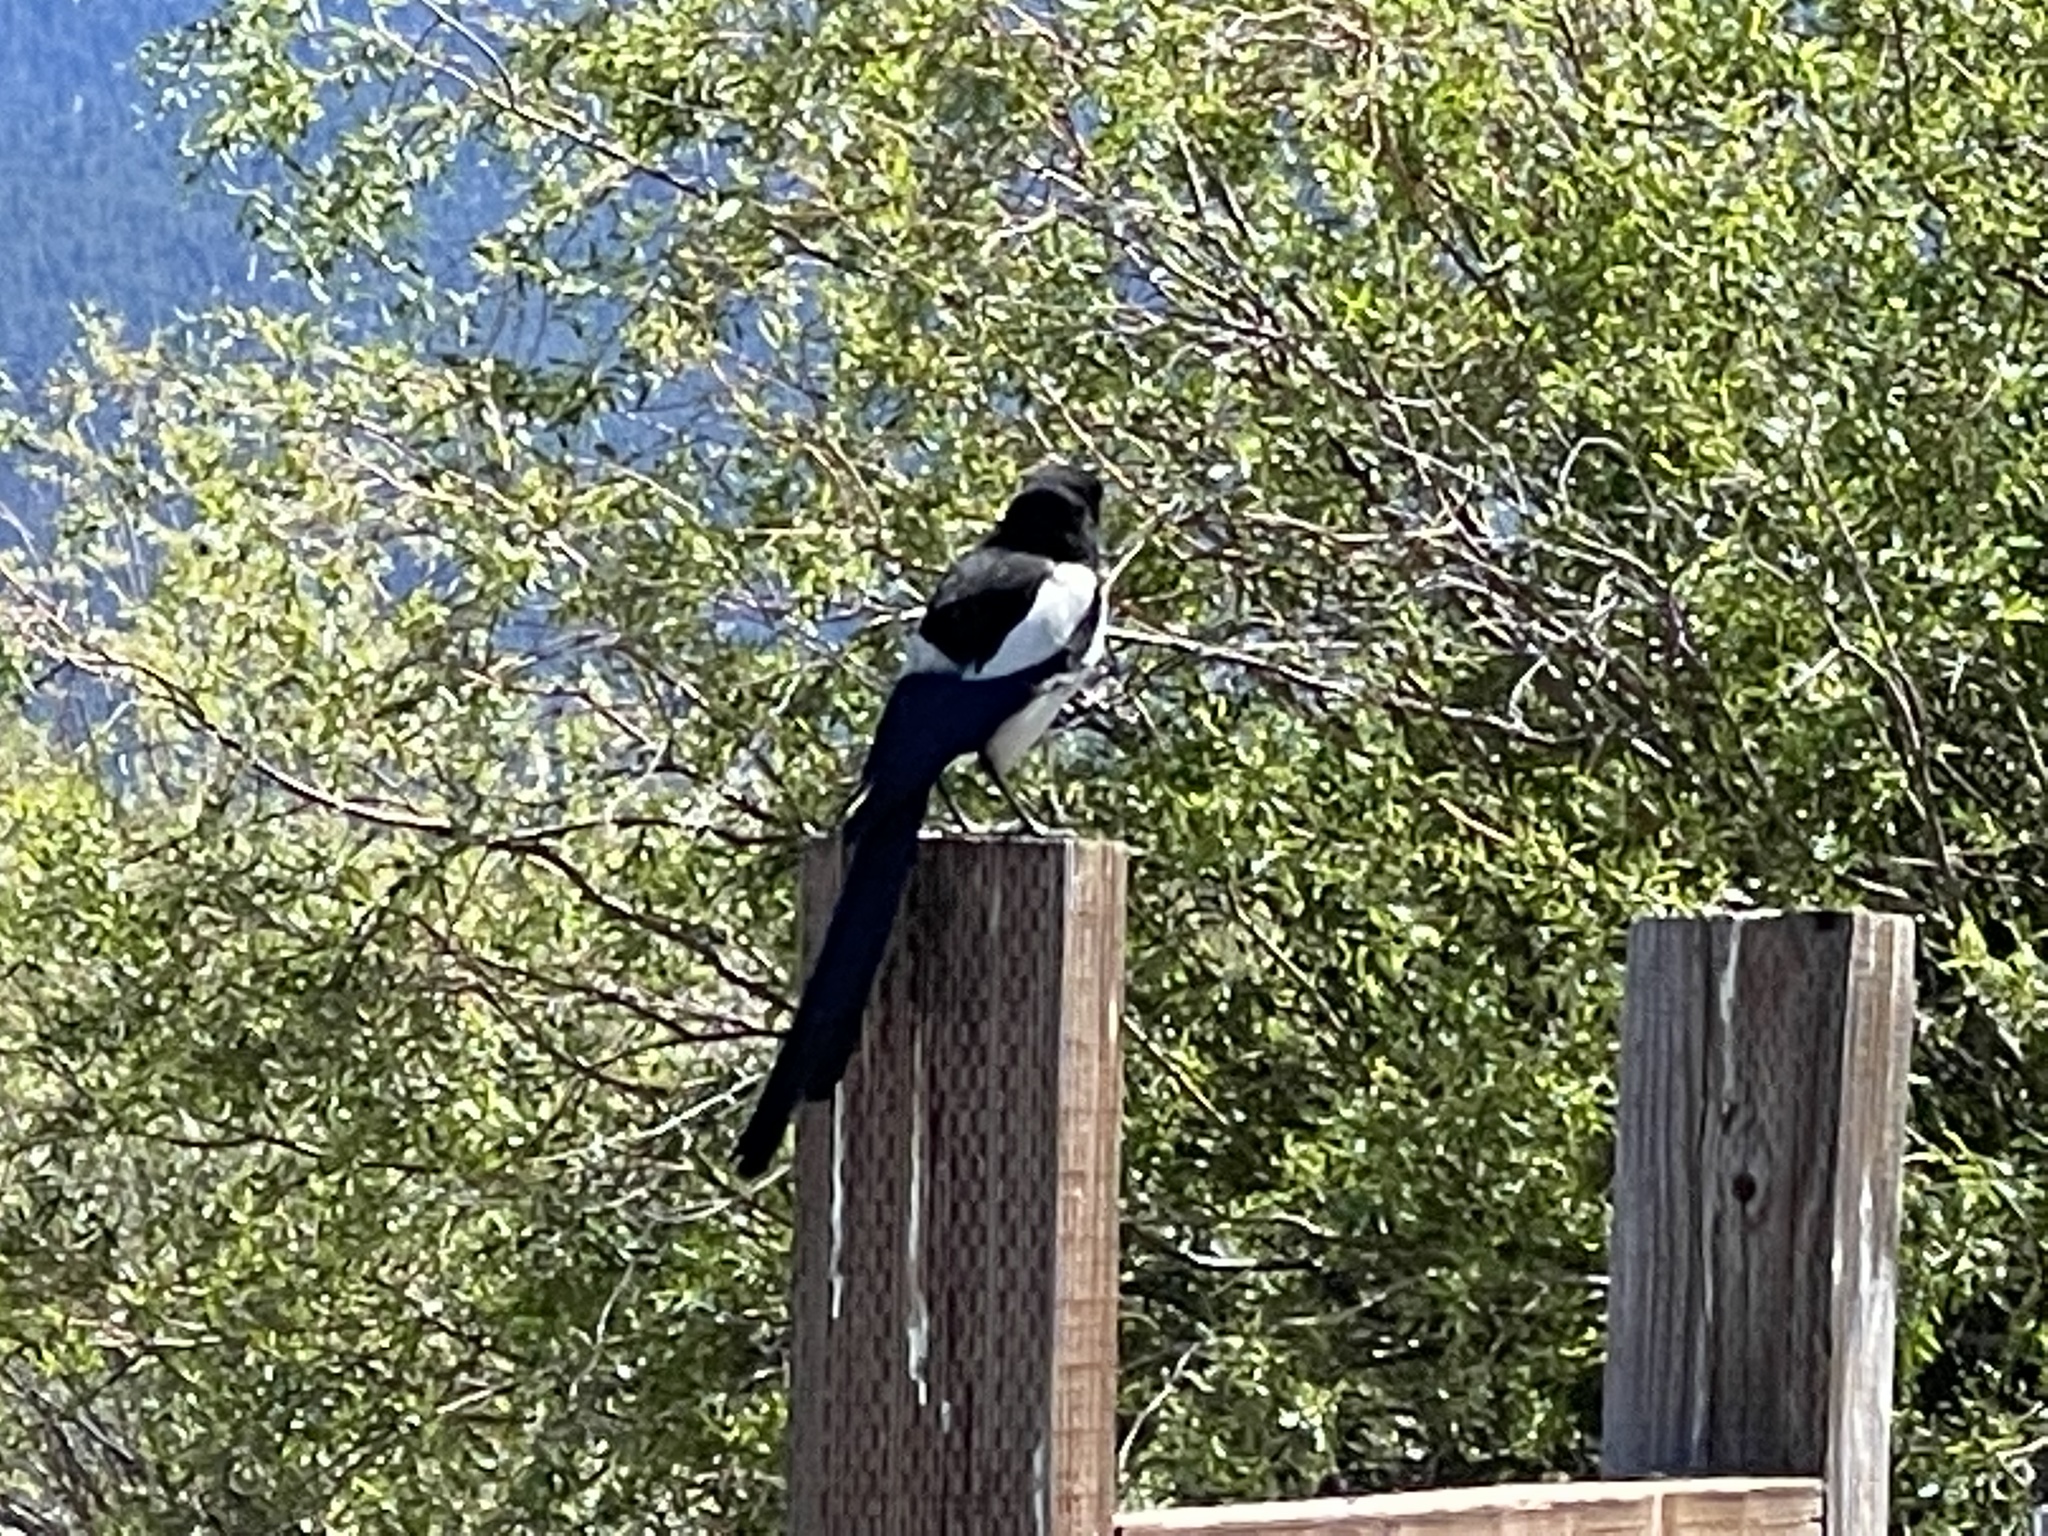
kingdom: Animalia
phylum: Chordata
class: Aves
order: Passeriformes
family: Corvidae
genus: Pica
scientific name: Pica hudsonia
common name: Black-billed magpie
